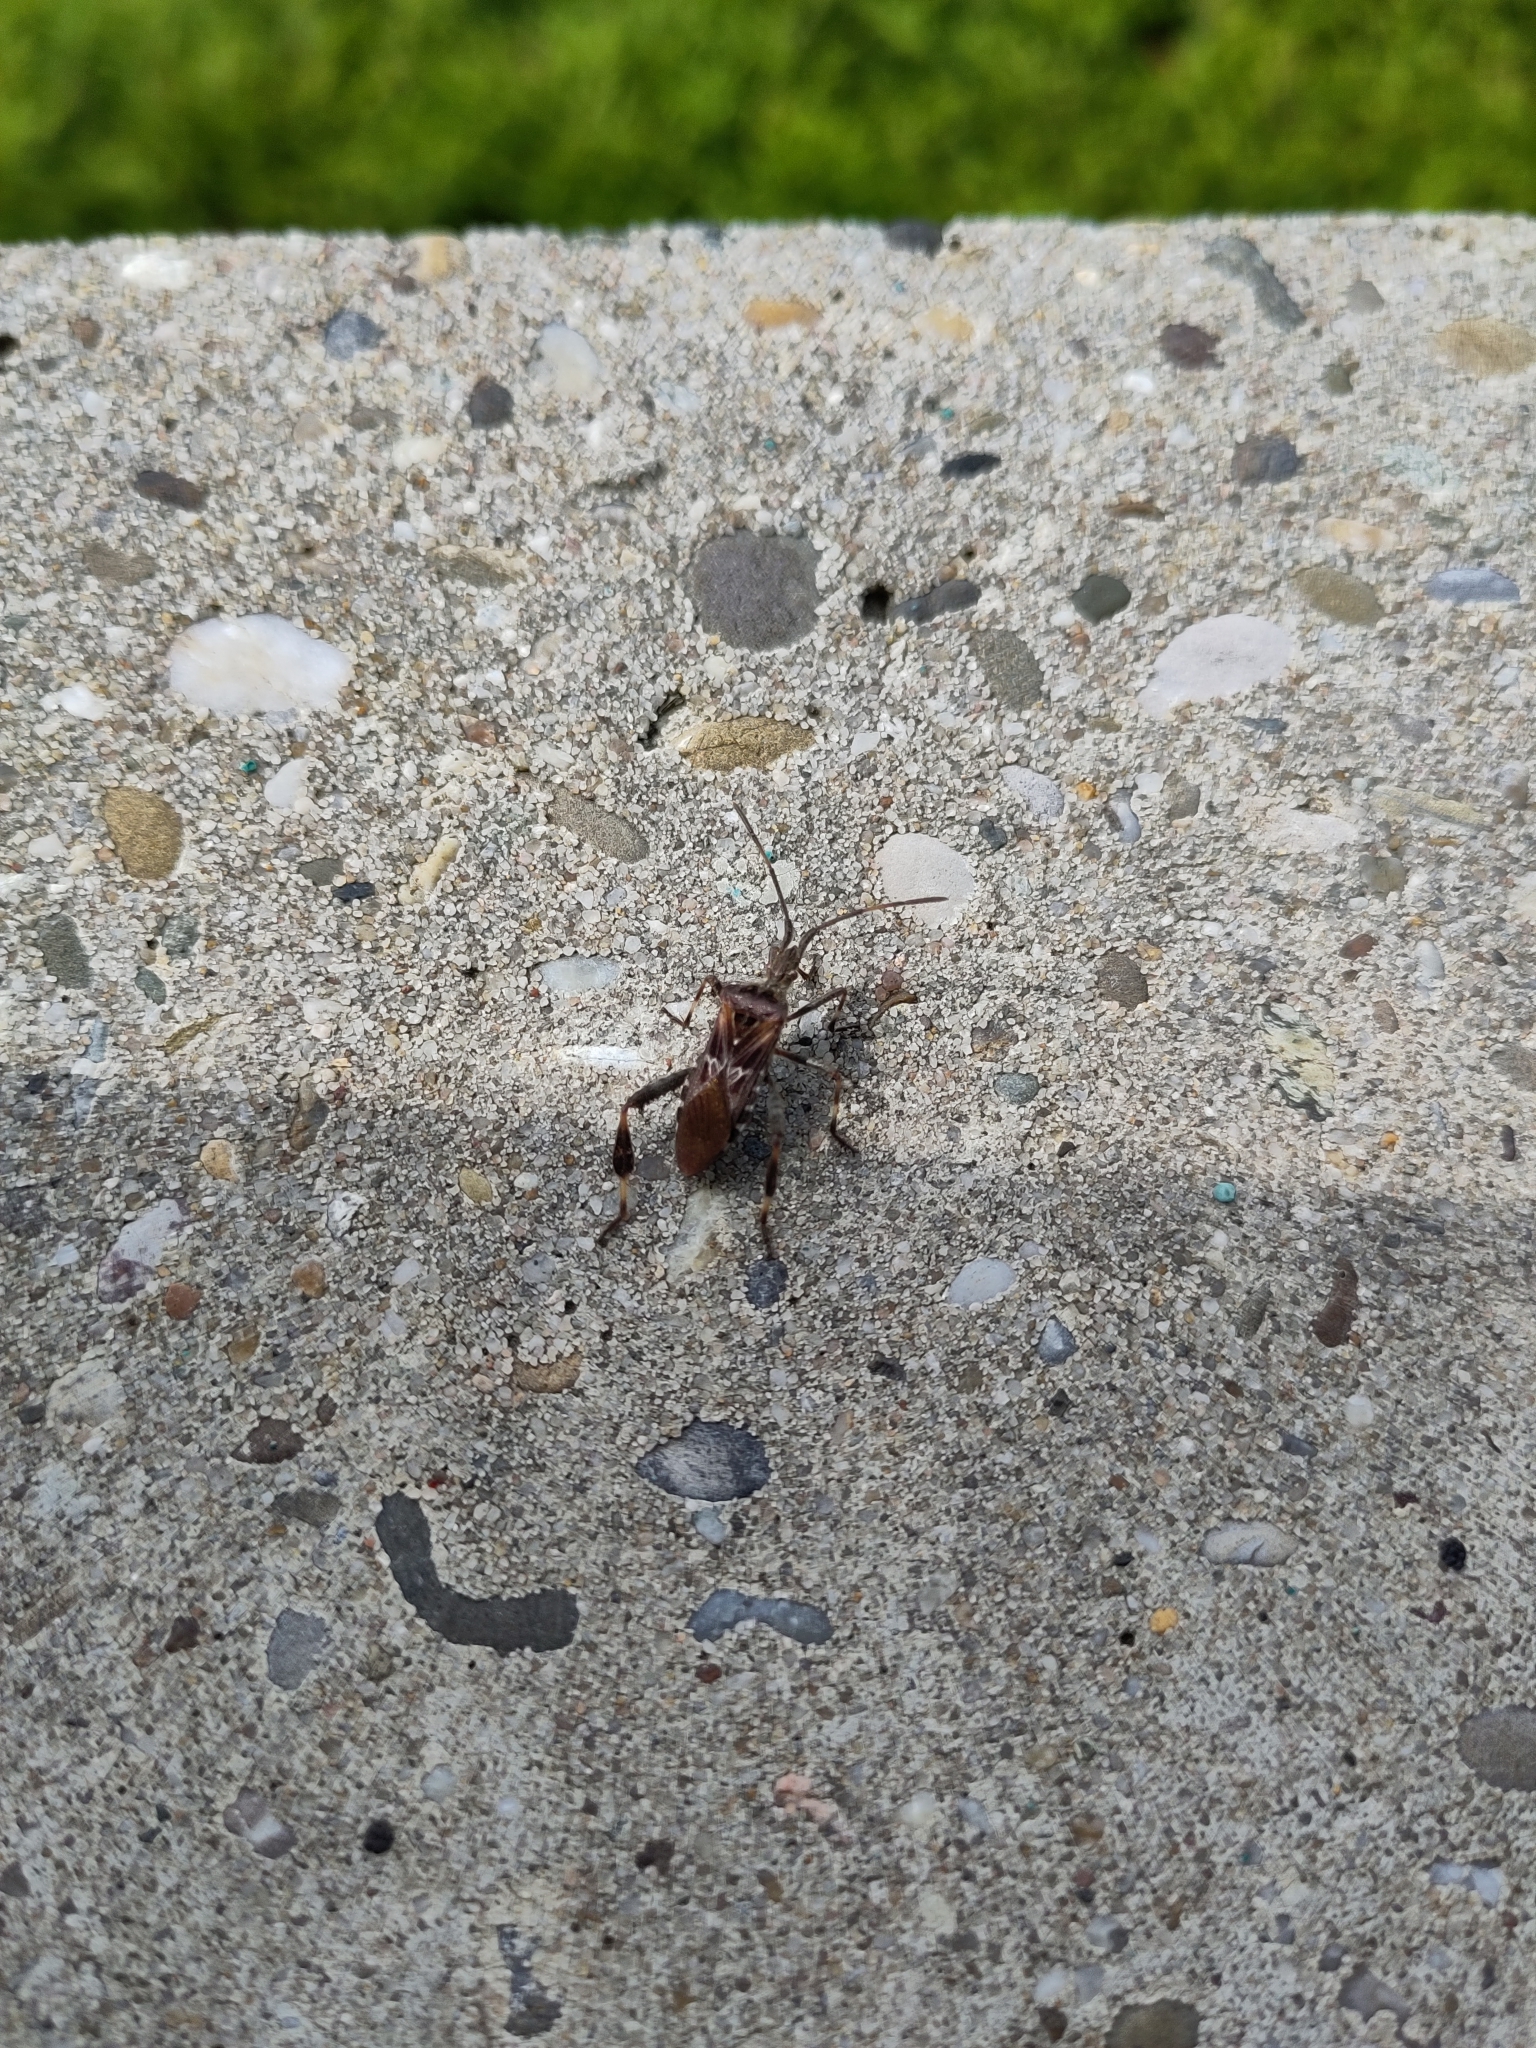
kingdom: Animalia
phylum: Arthropoda
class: Insecta
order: Hemiptera
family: Coreidae
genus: Leptoglossus
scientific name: Leptoglossus occidentalis
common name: Western conifer-seed bug
